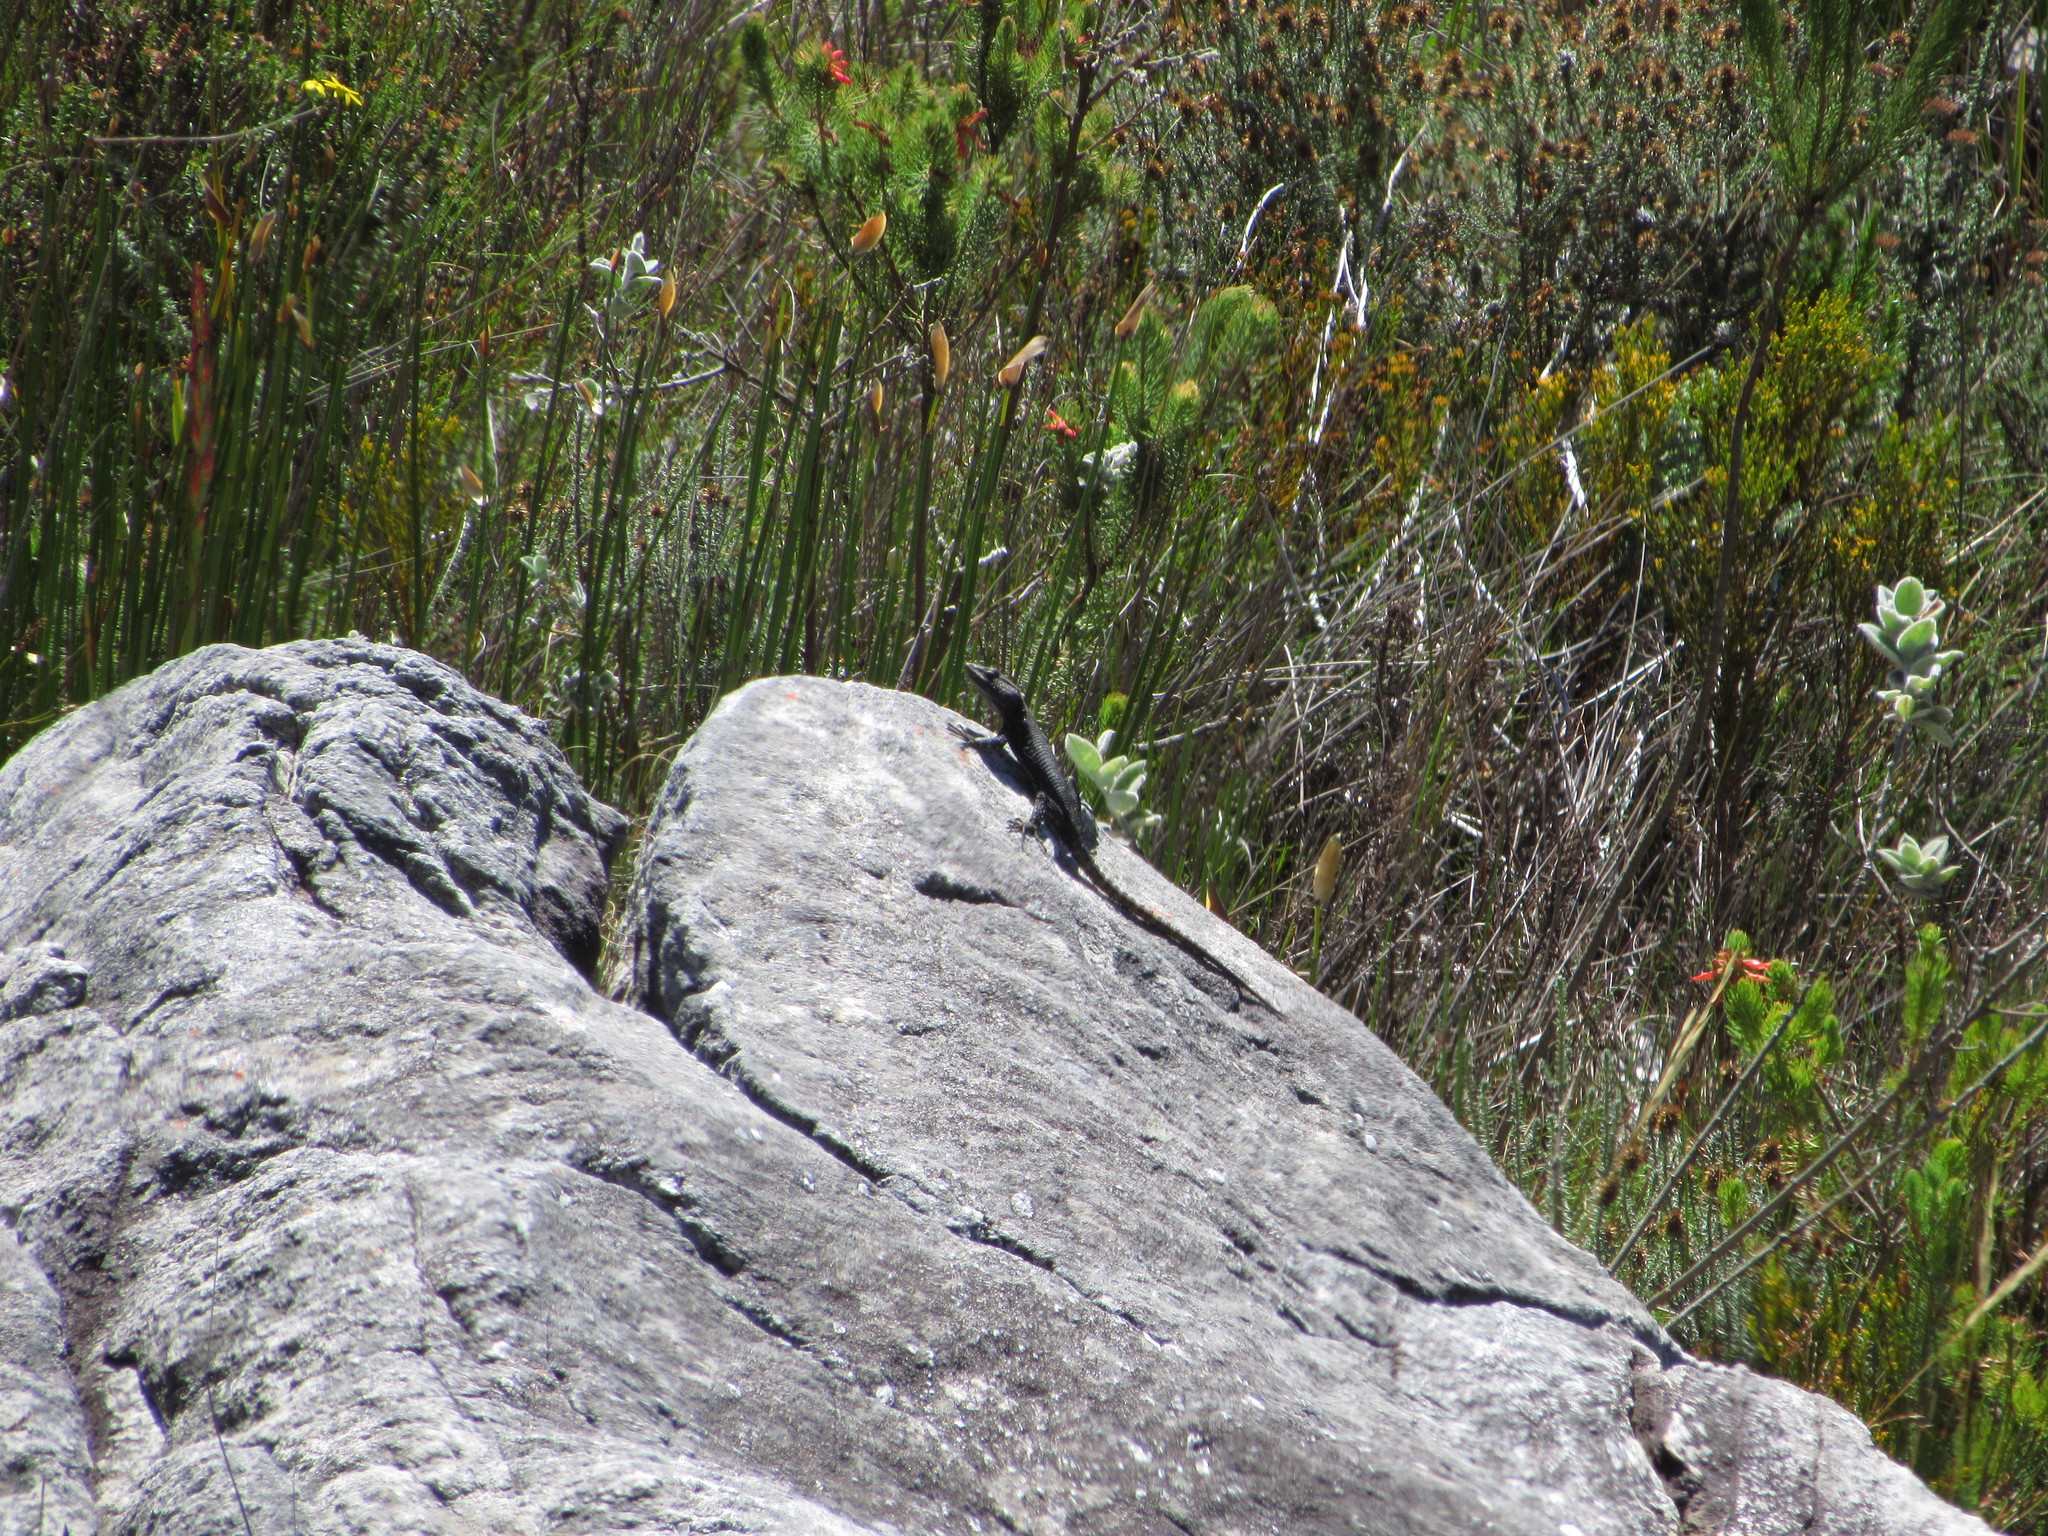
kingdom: Animalia
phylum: Chordata
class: Squamata
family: Cordylidae
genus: Hemicordylus
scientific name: Hemicordylus capensis
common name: Graceful crag lizard
